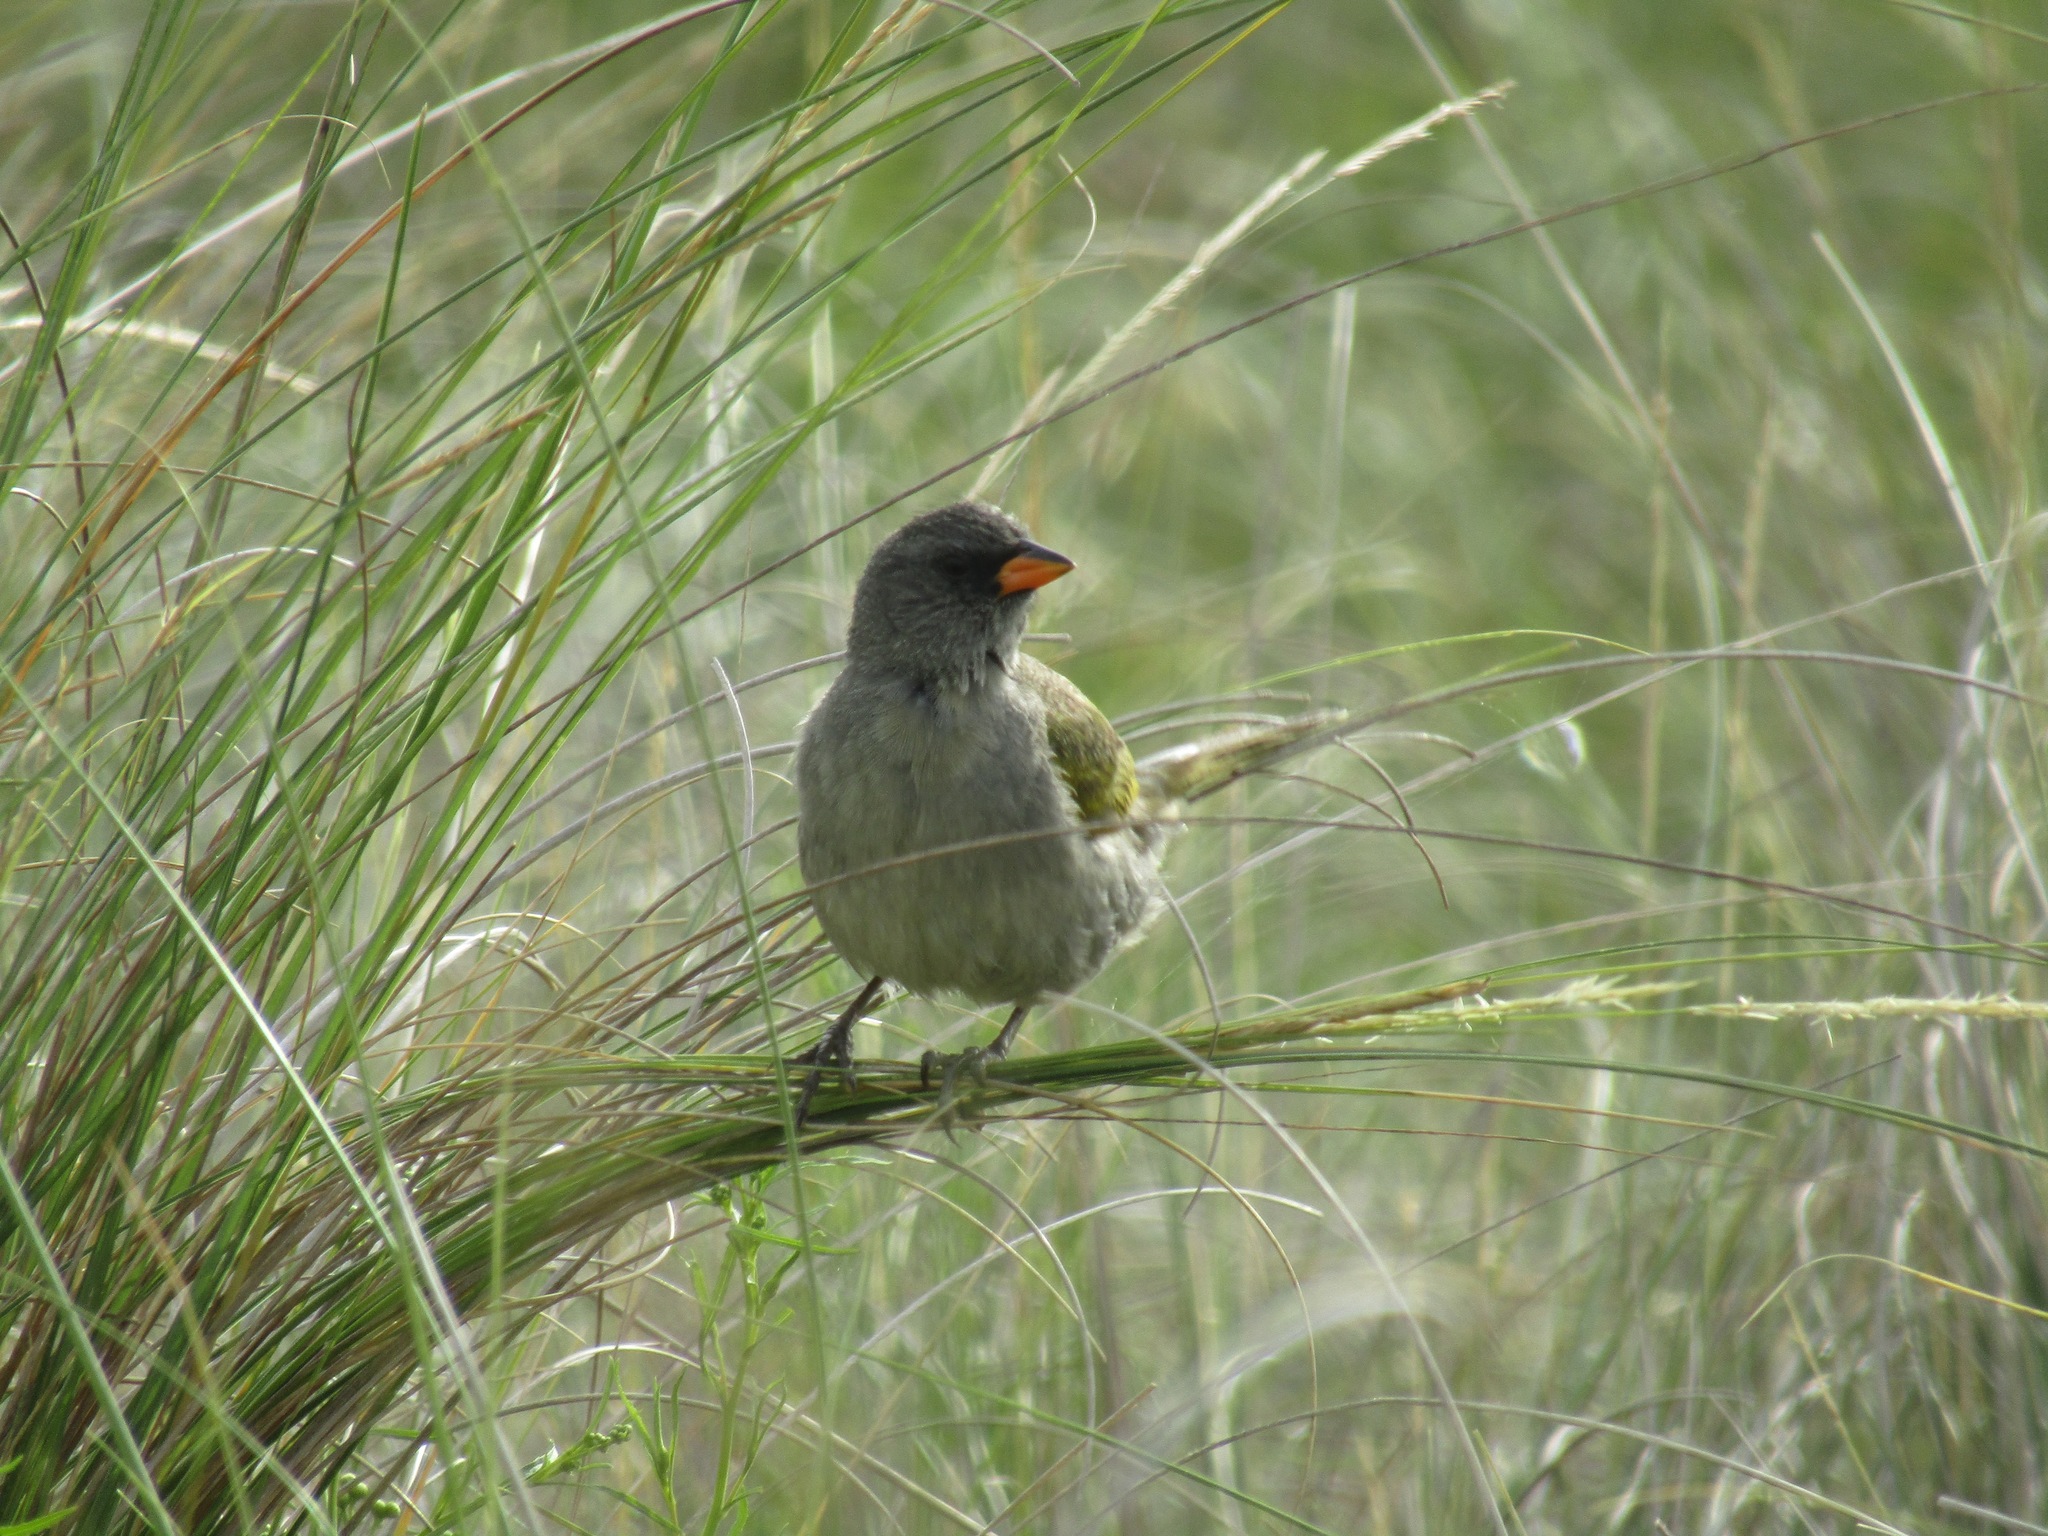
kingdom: Animalia
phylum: Chordata
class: Aves
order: Passeriformes
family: Thraupidae
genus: Embernagra
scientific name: Embernagra platensis
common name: Pampa finch
